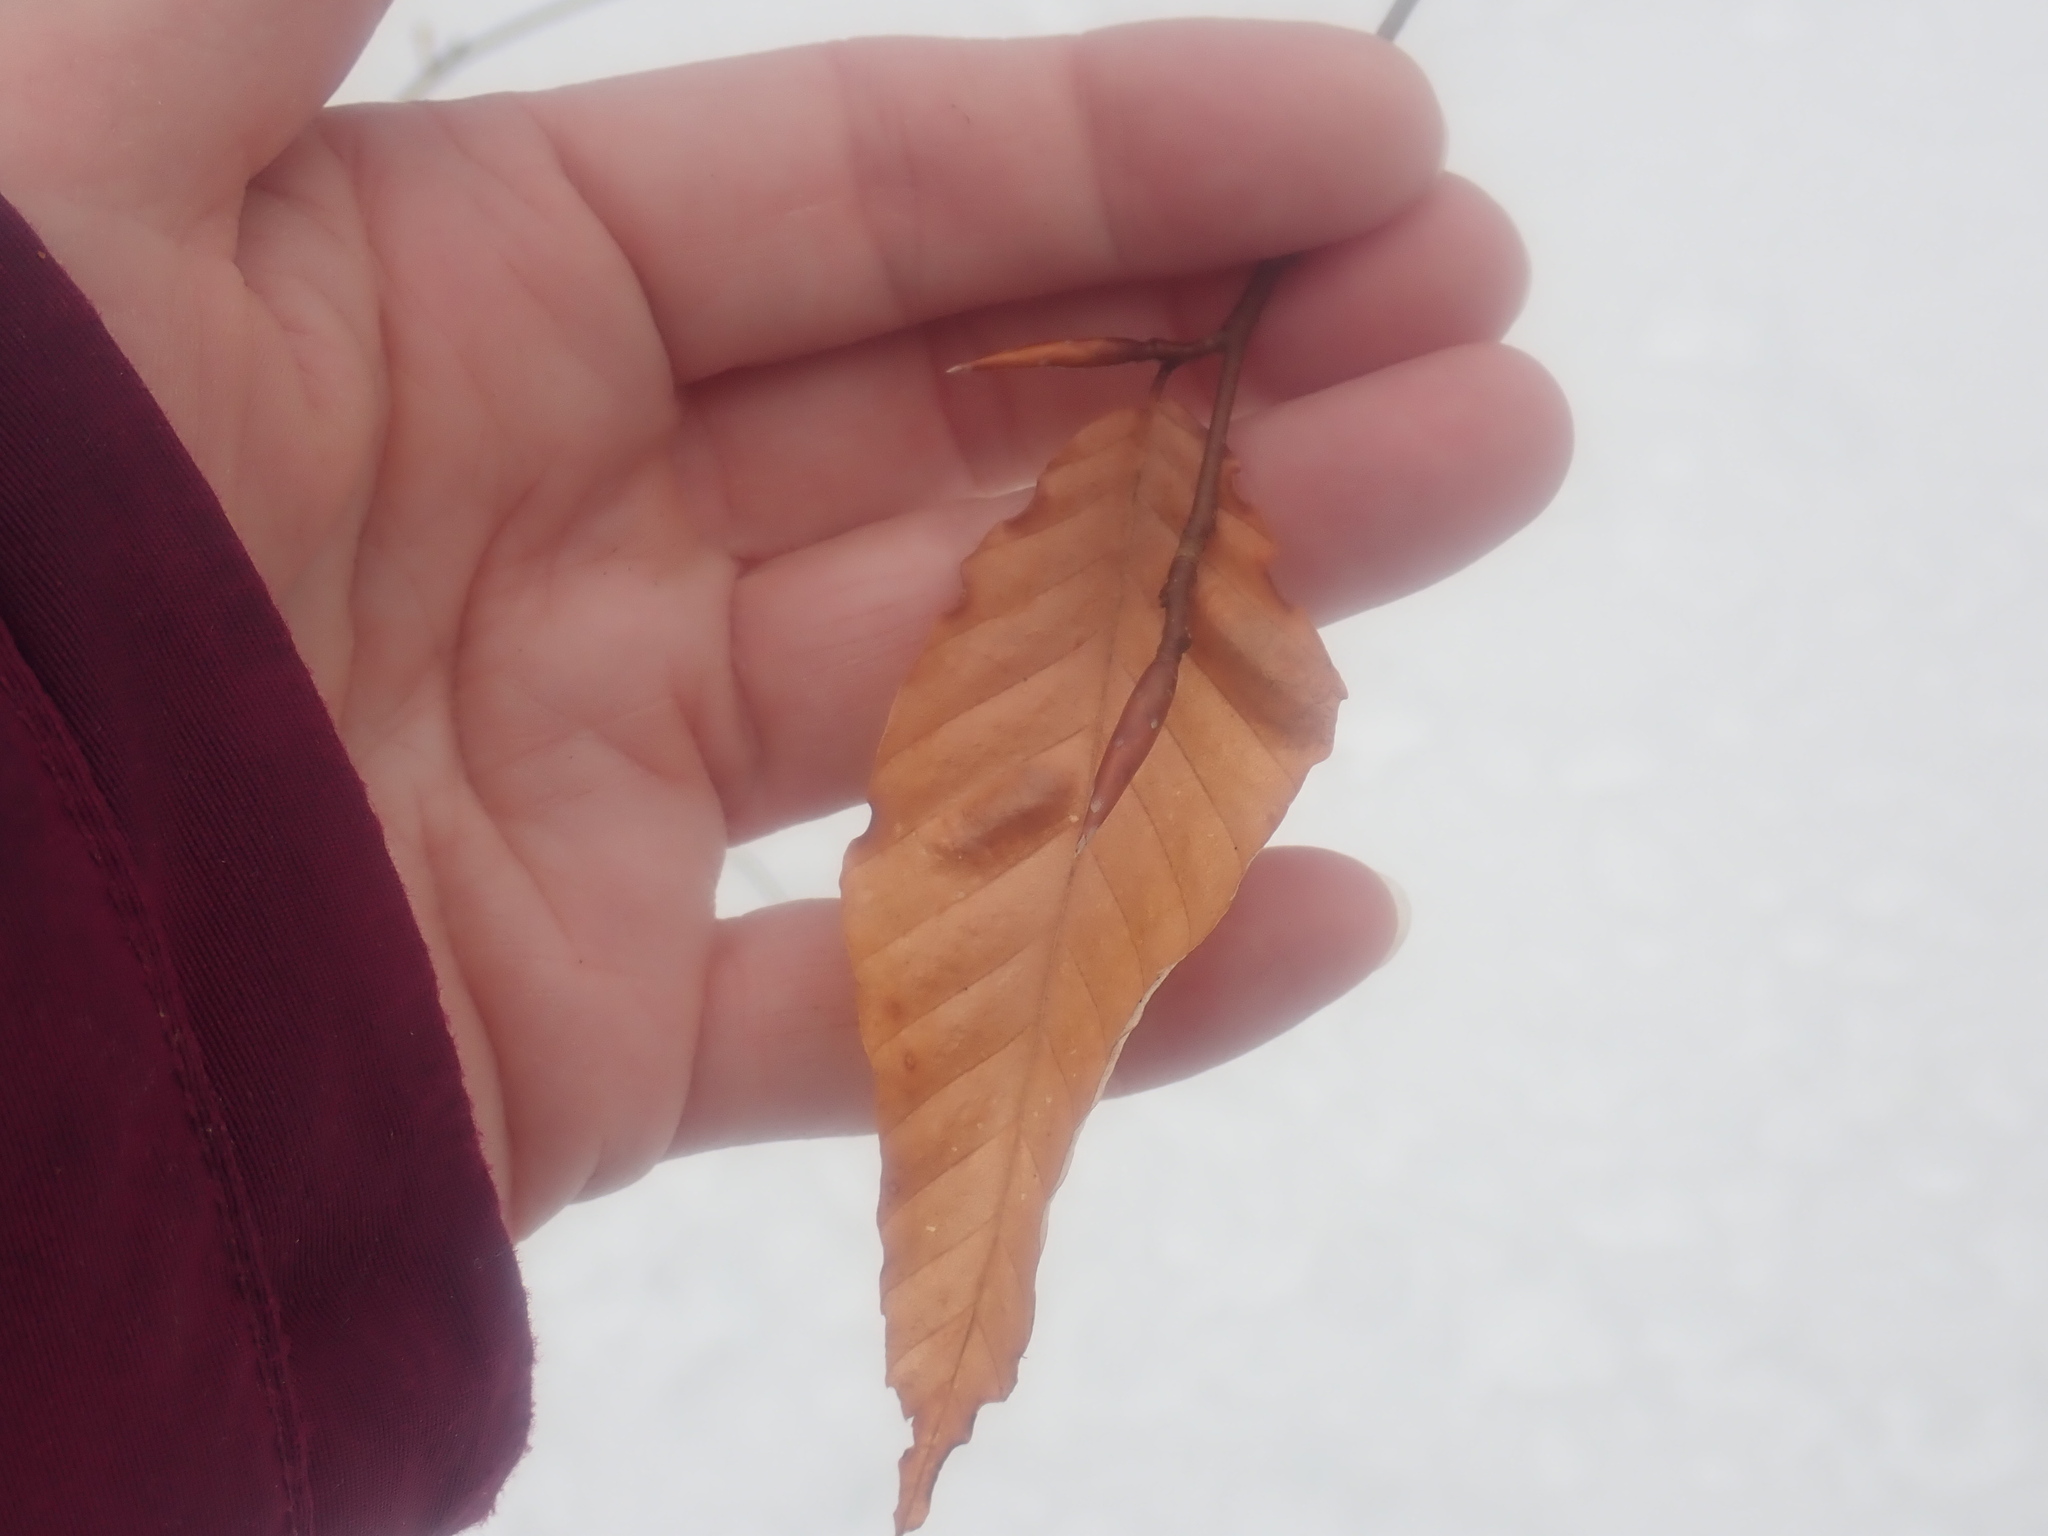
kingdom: Plantae
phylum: Tracheophyta
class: Magnoliopsida
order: Fagales
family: Fagaceae
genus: Fagus
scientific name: Fagus grandifolia
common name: American beech
